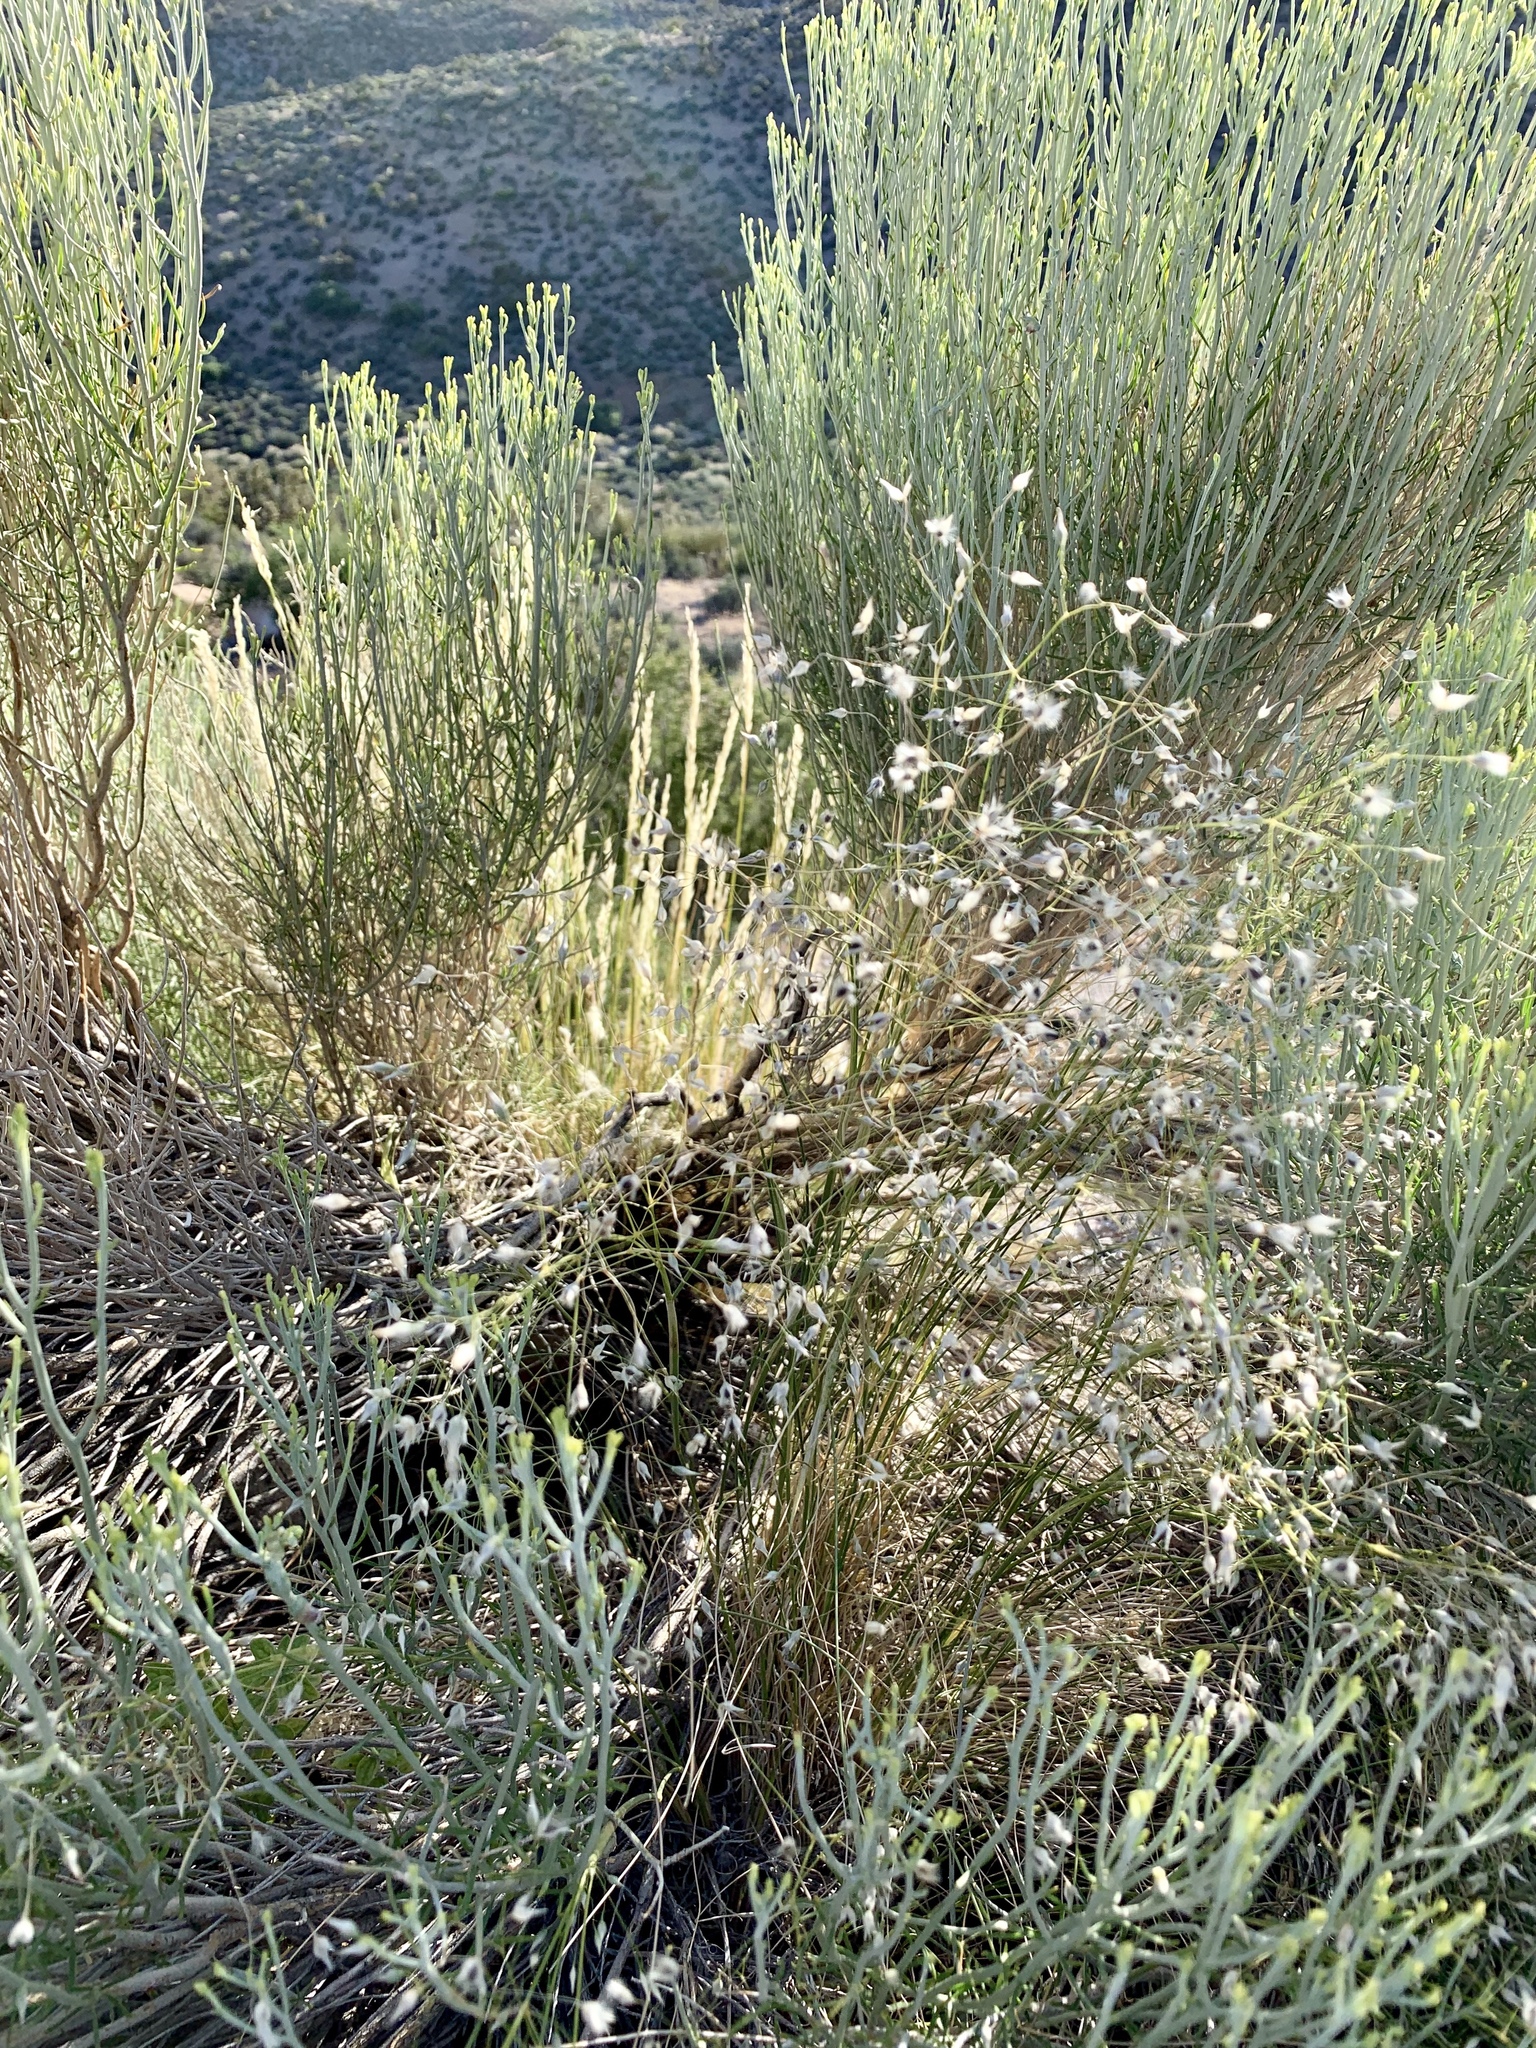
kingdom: Plantae
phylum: Tracheophyta
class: Liliopsida
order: Poales
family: Poaceae
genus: Eriocoma
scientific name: Eriocoma hymenoides
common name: Indian mountain ricegrass
